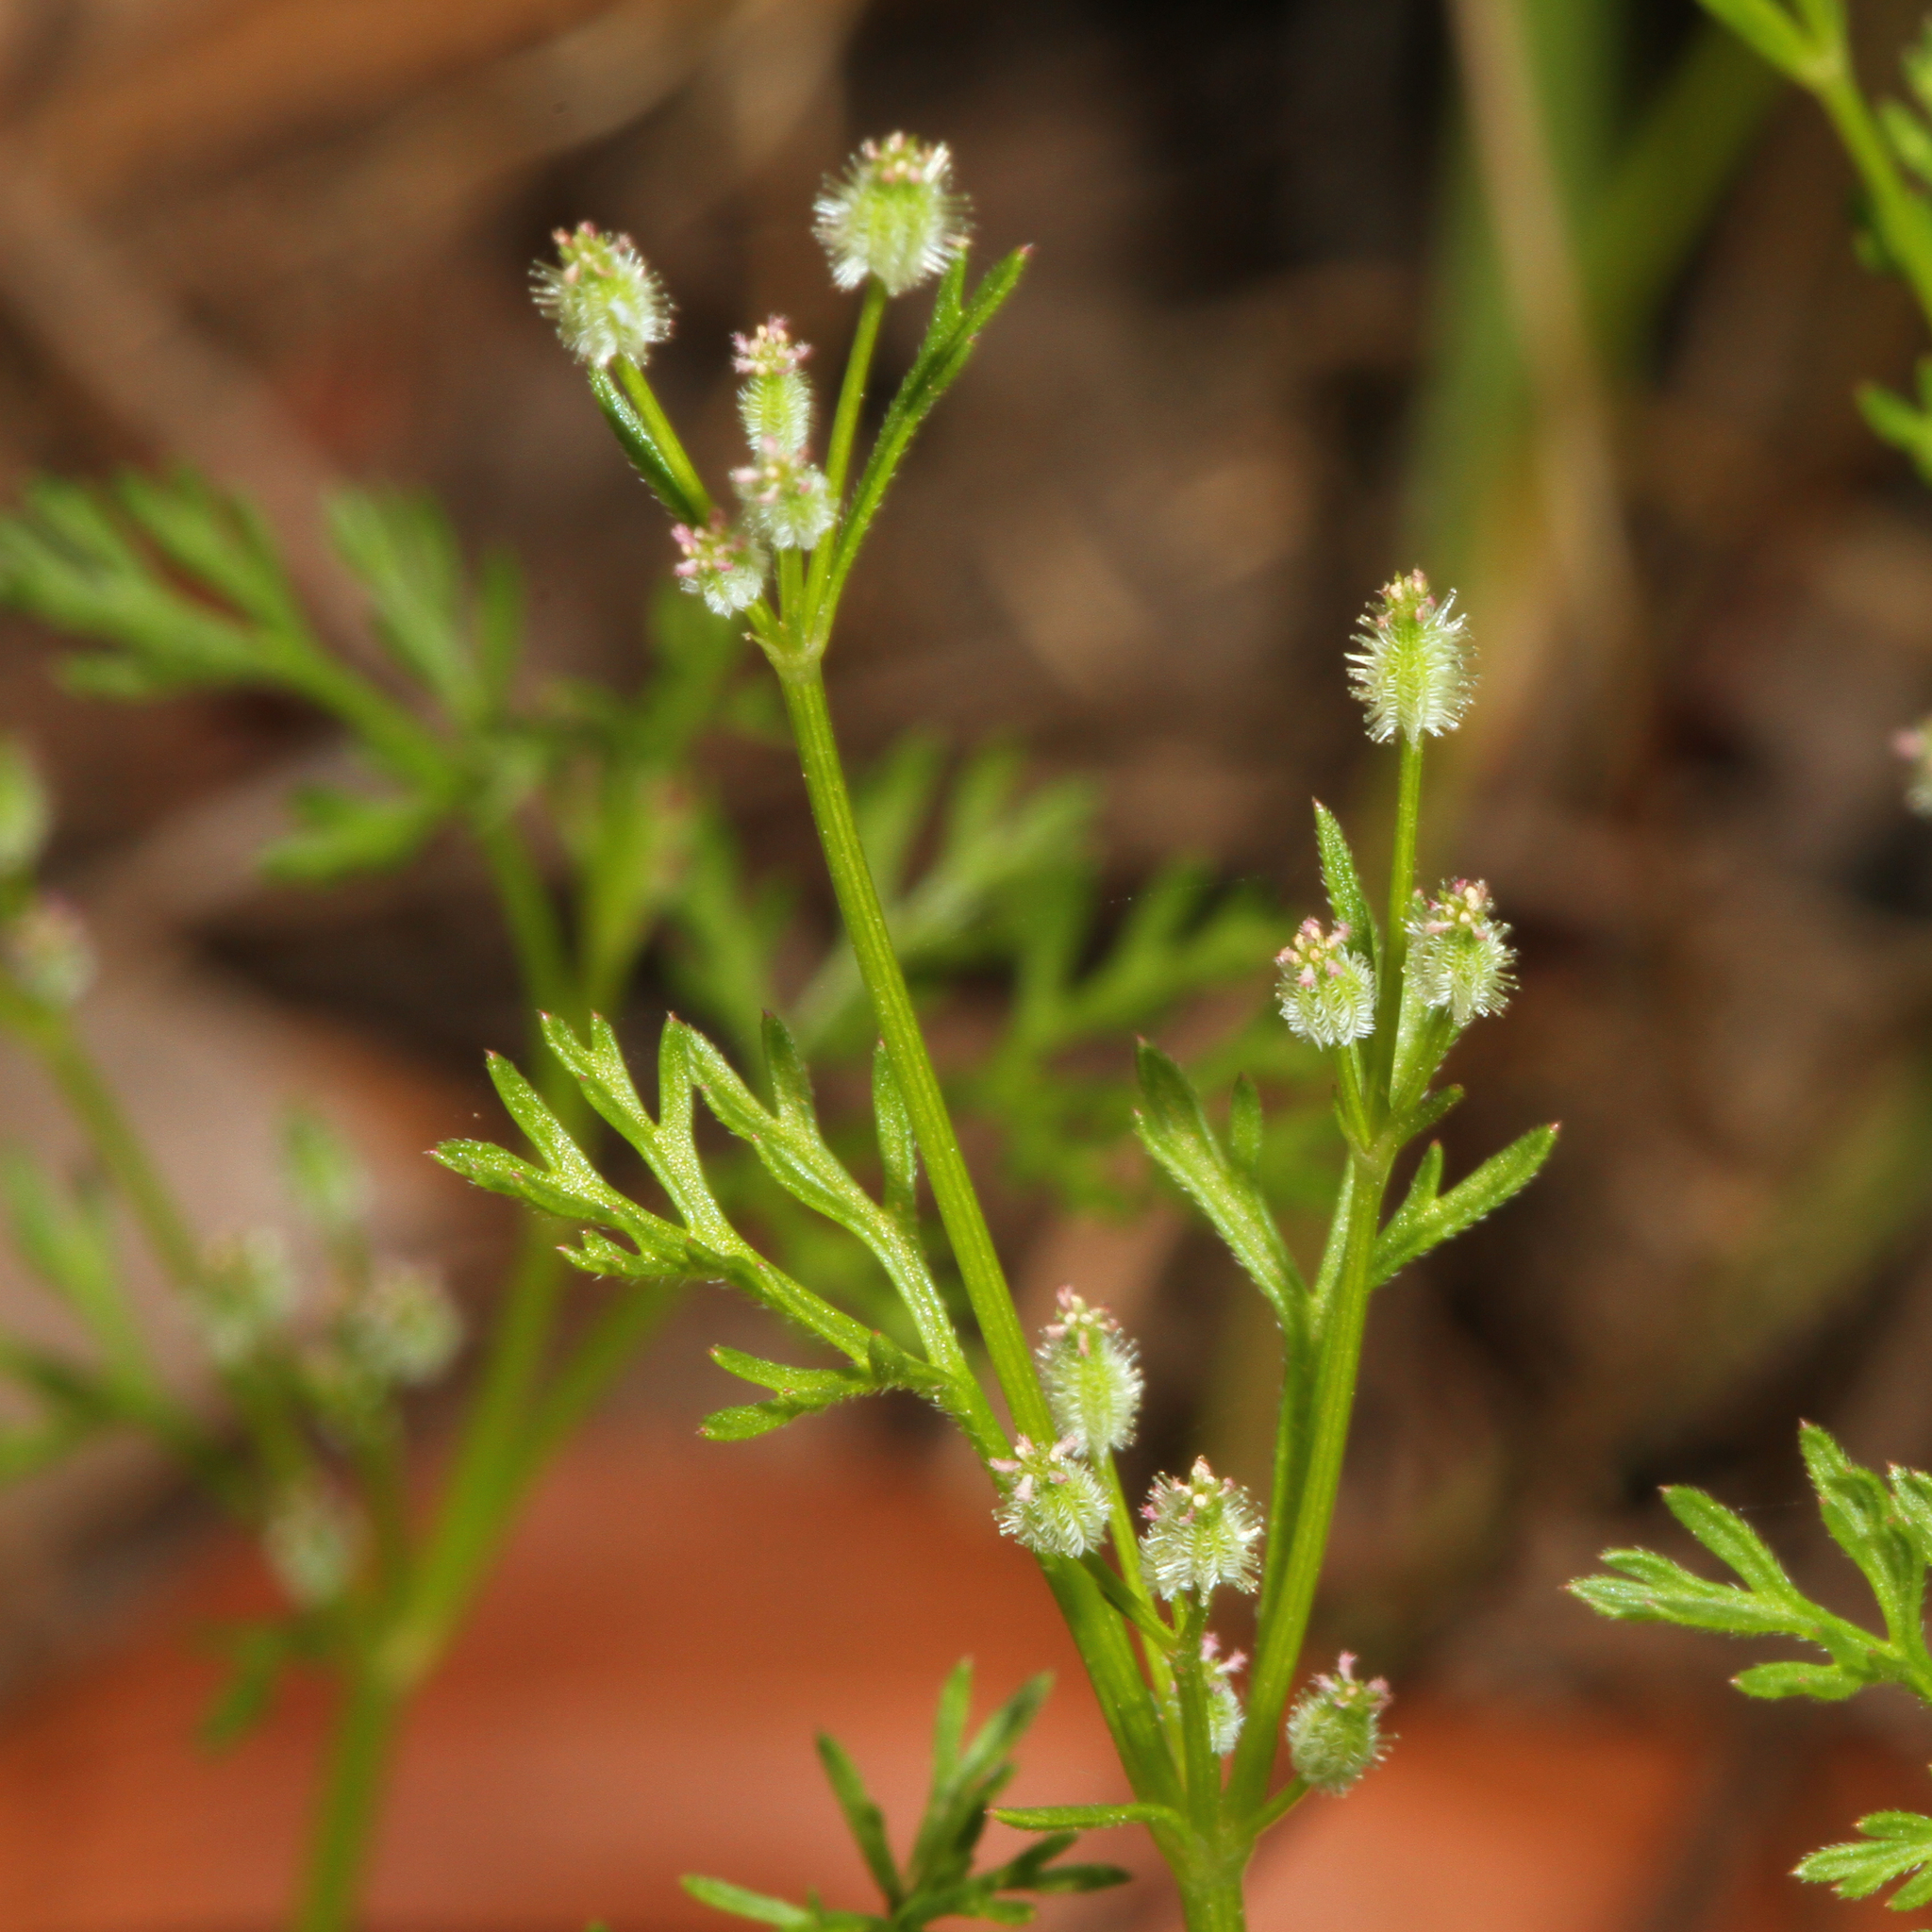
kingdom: Plantae
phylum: Tracheophyta
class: Magnoliopsida
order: Apiales
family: Apiaceae
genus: Daucus
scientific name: Daucus glochidiatus
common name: Australian carrot
